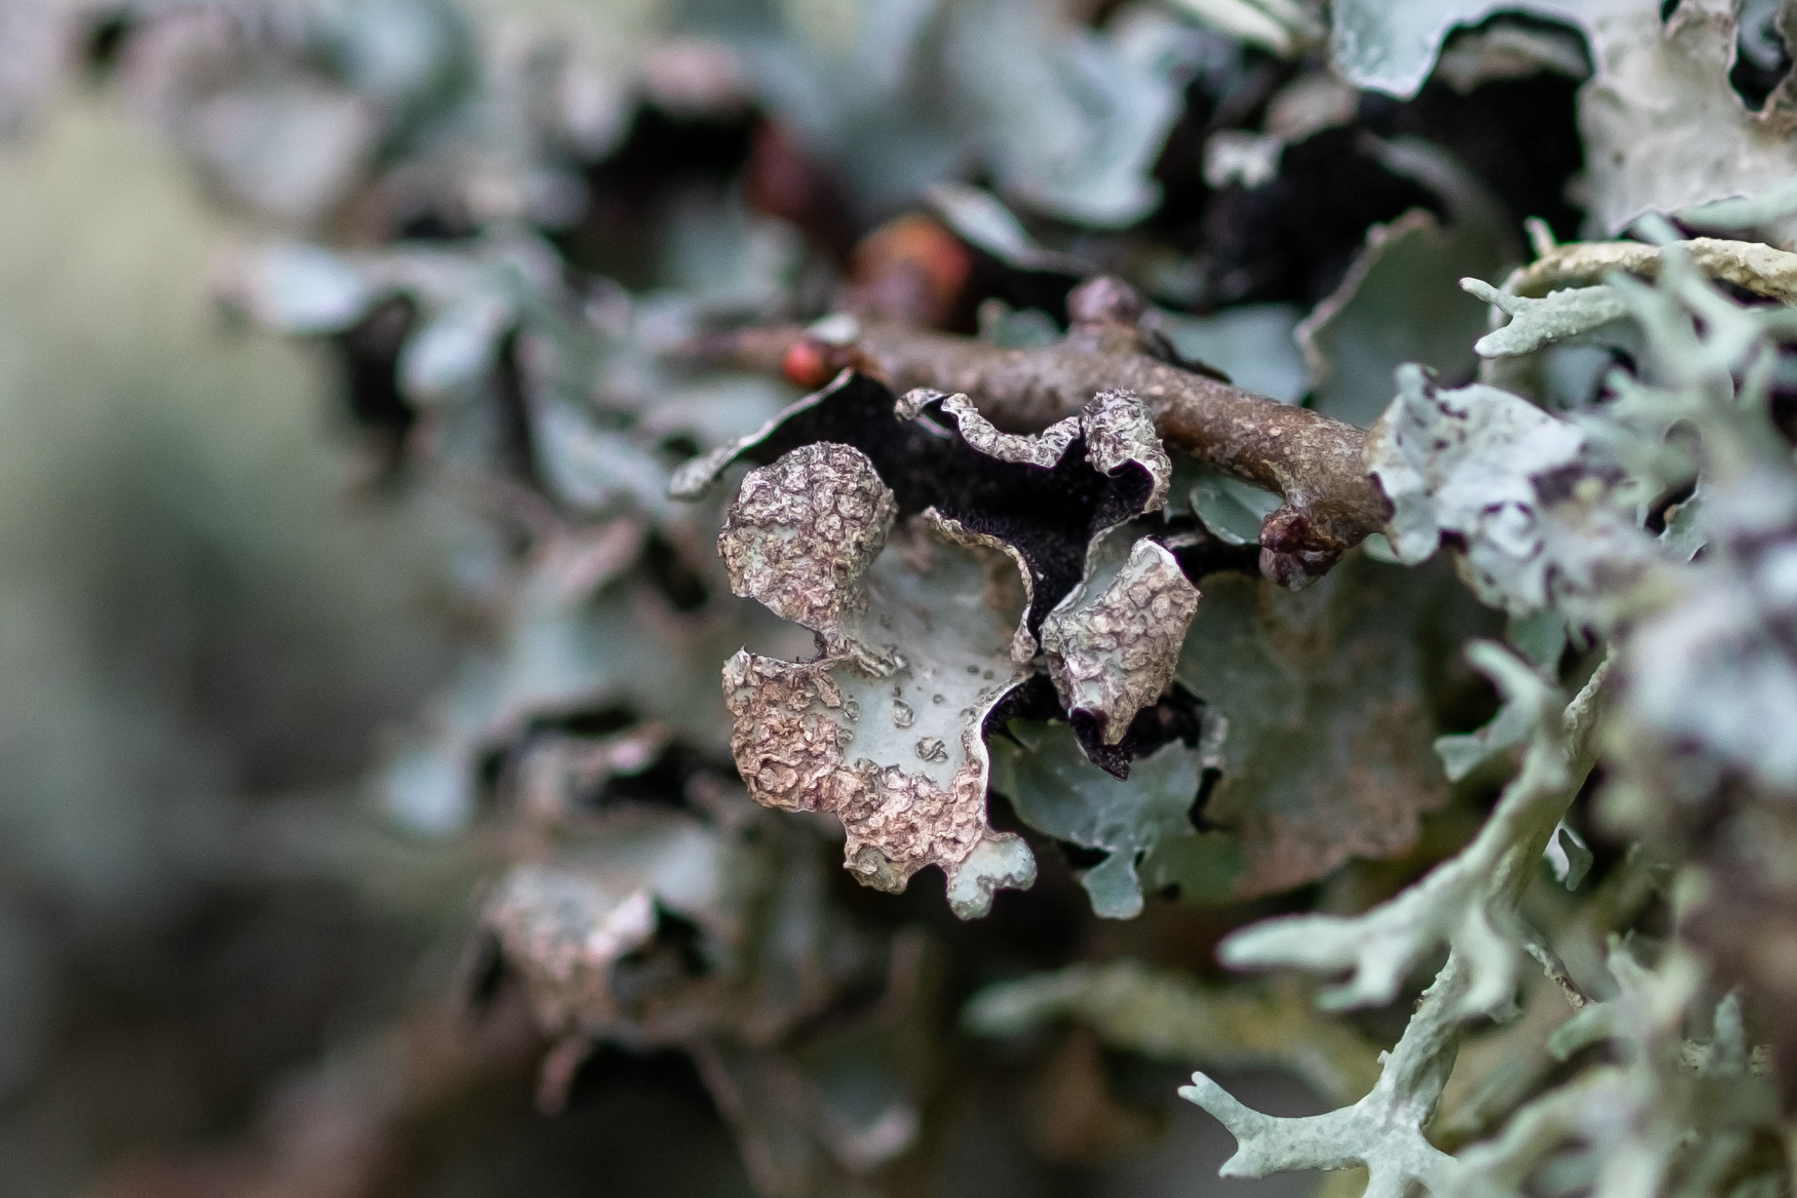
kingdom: Fungi
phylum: Ascomycota
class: Lecanoromycetes
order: Lecanorales
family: Parmeliaceae
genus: Parmelia
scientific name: Parmelia sulcata
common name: Netted shield lichen
